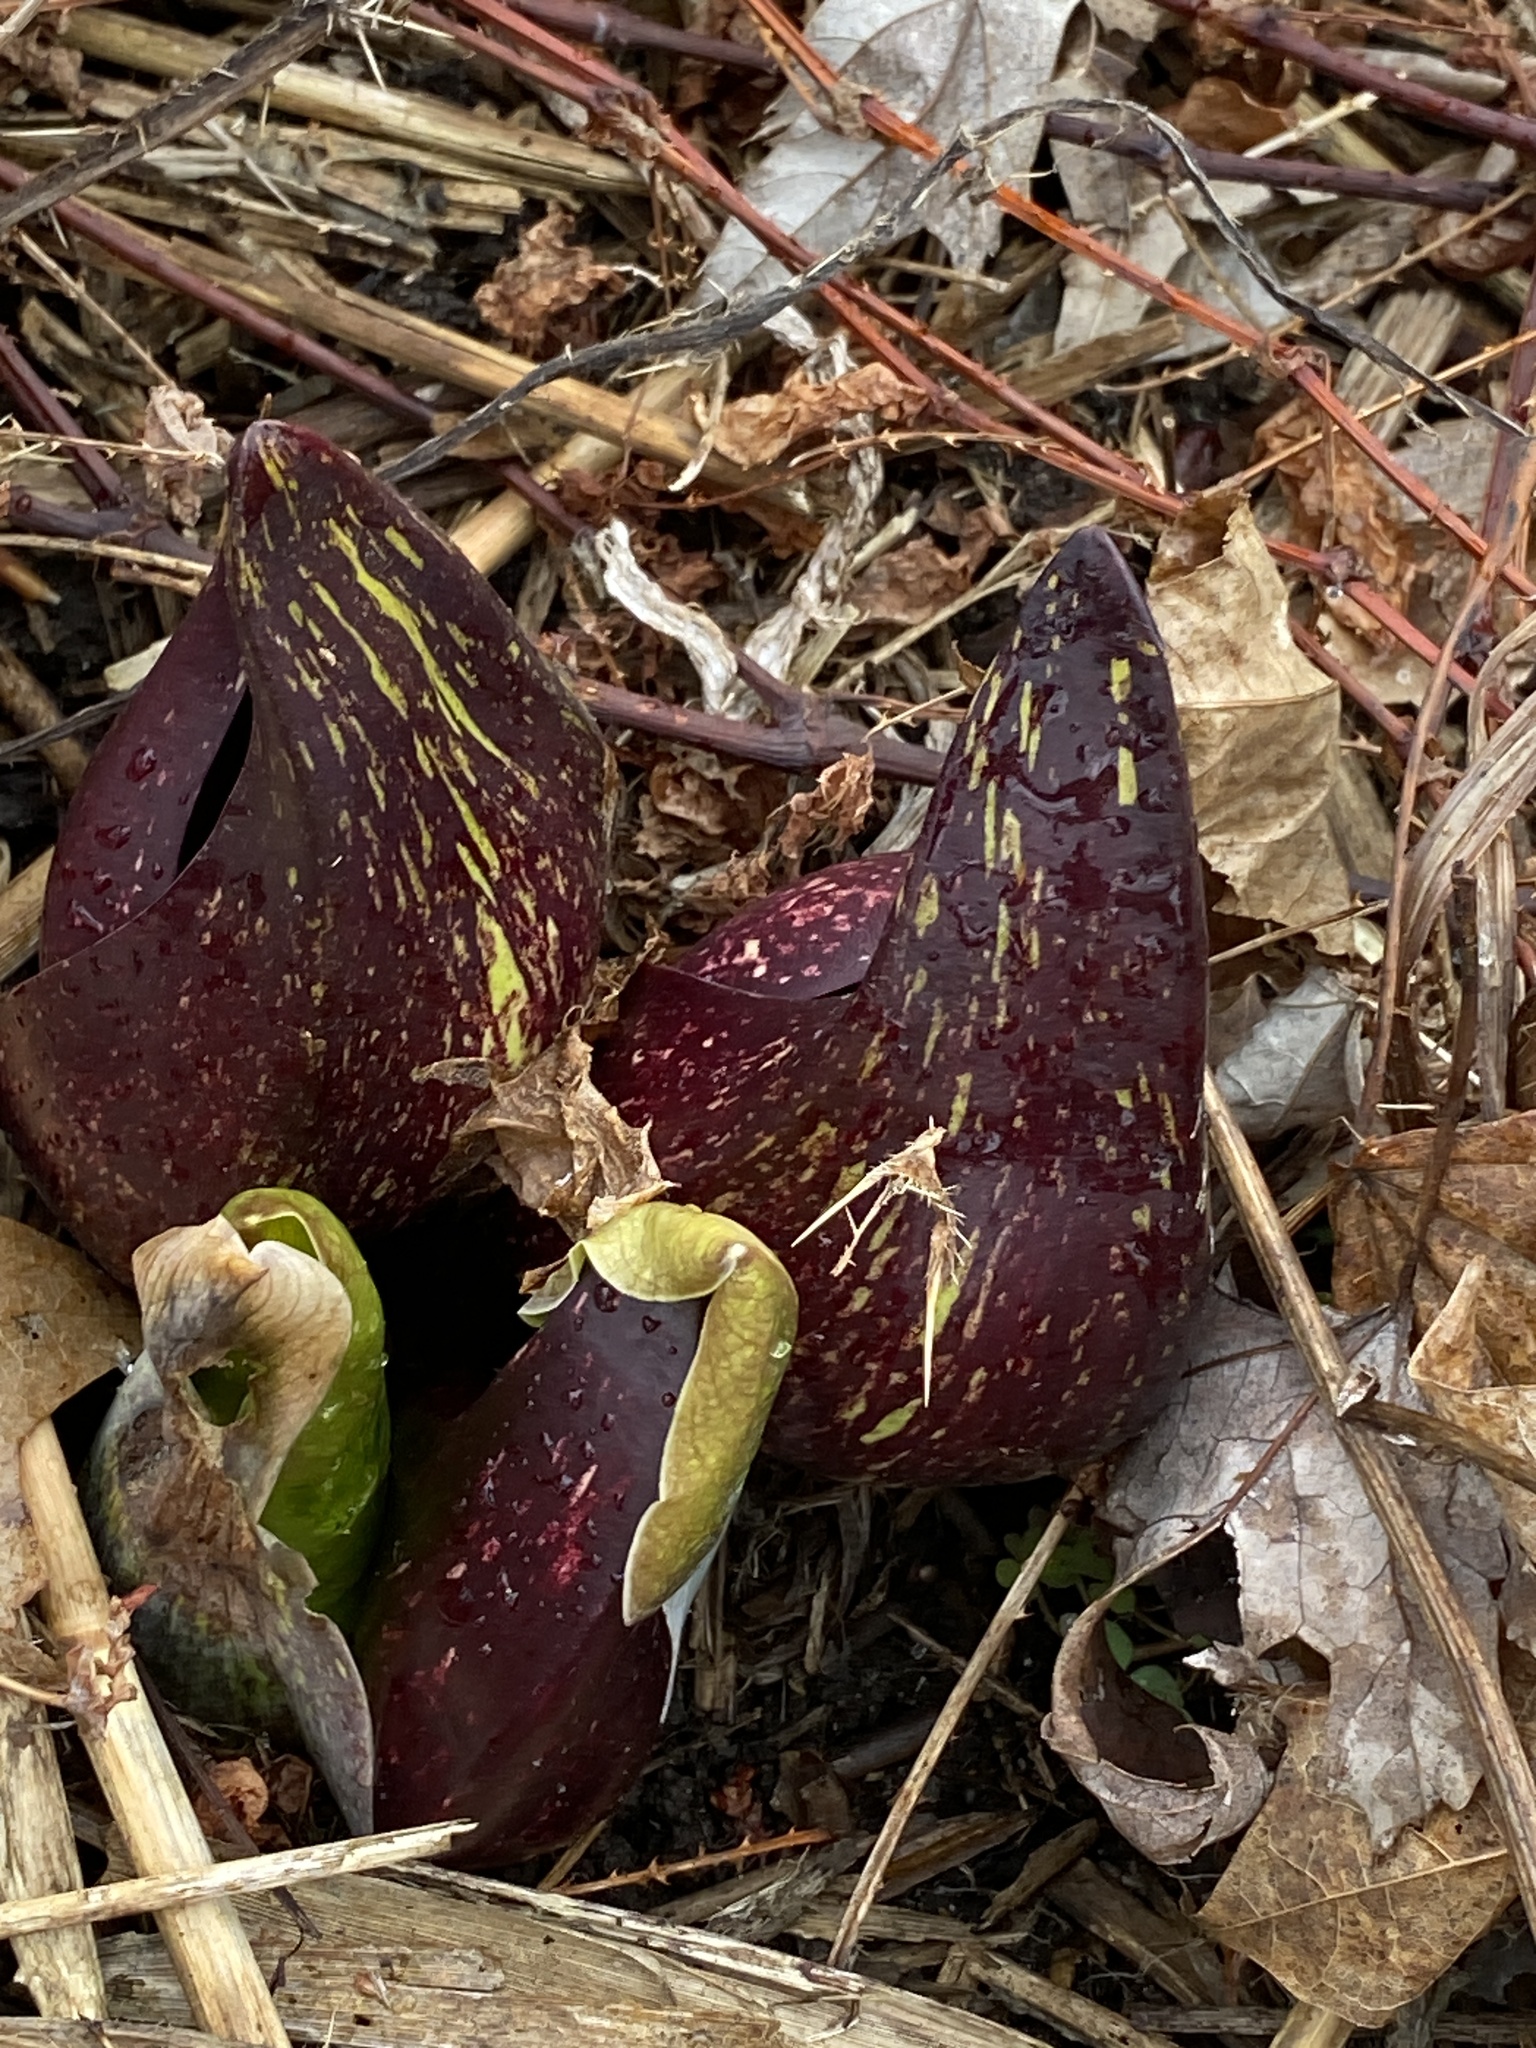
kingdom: Plantae
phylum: Tracheophyta
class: Liliopsida
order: Alismatales
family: Araceae
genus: Symplocarpus
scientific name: Symplocarpus foetidus
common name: Eastern skunk cabbage
